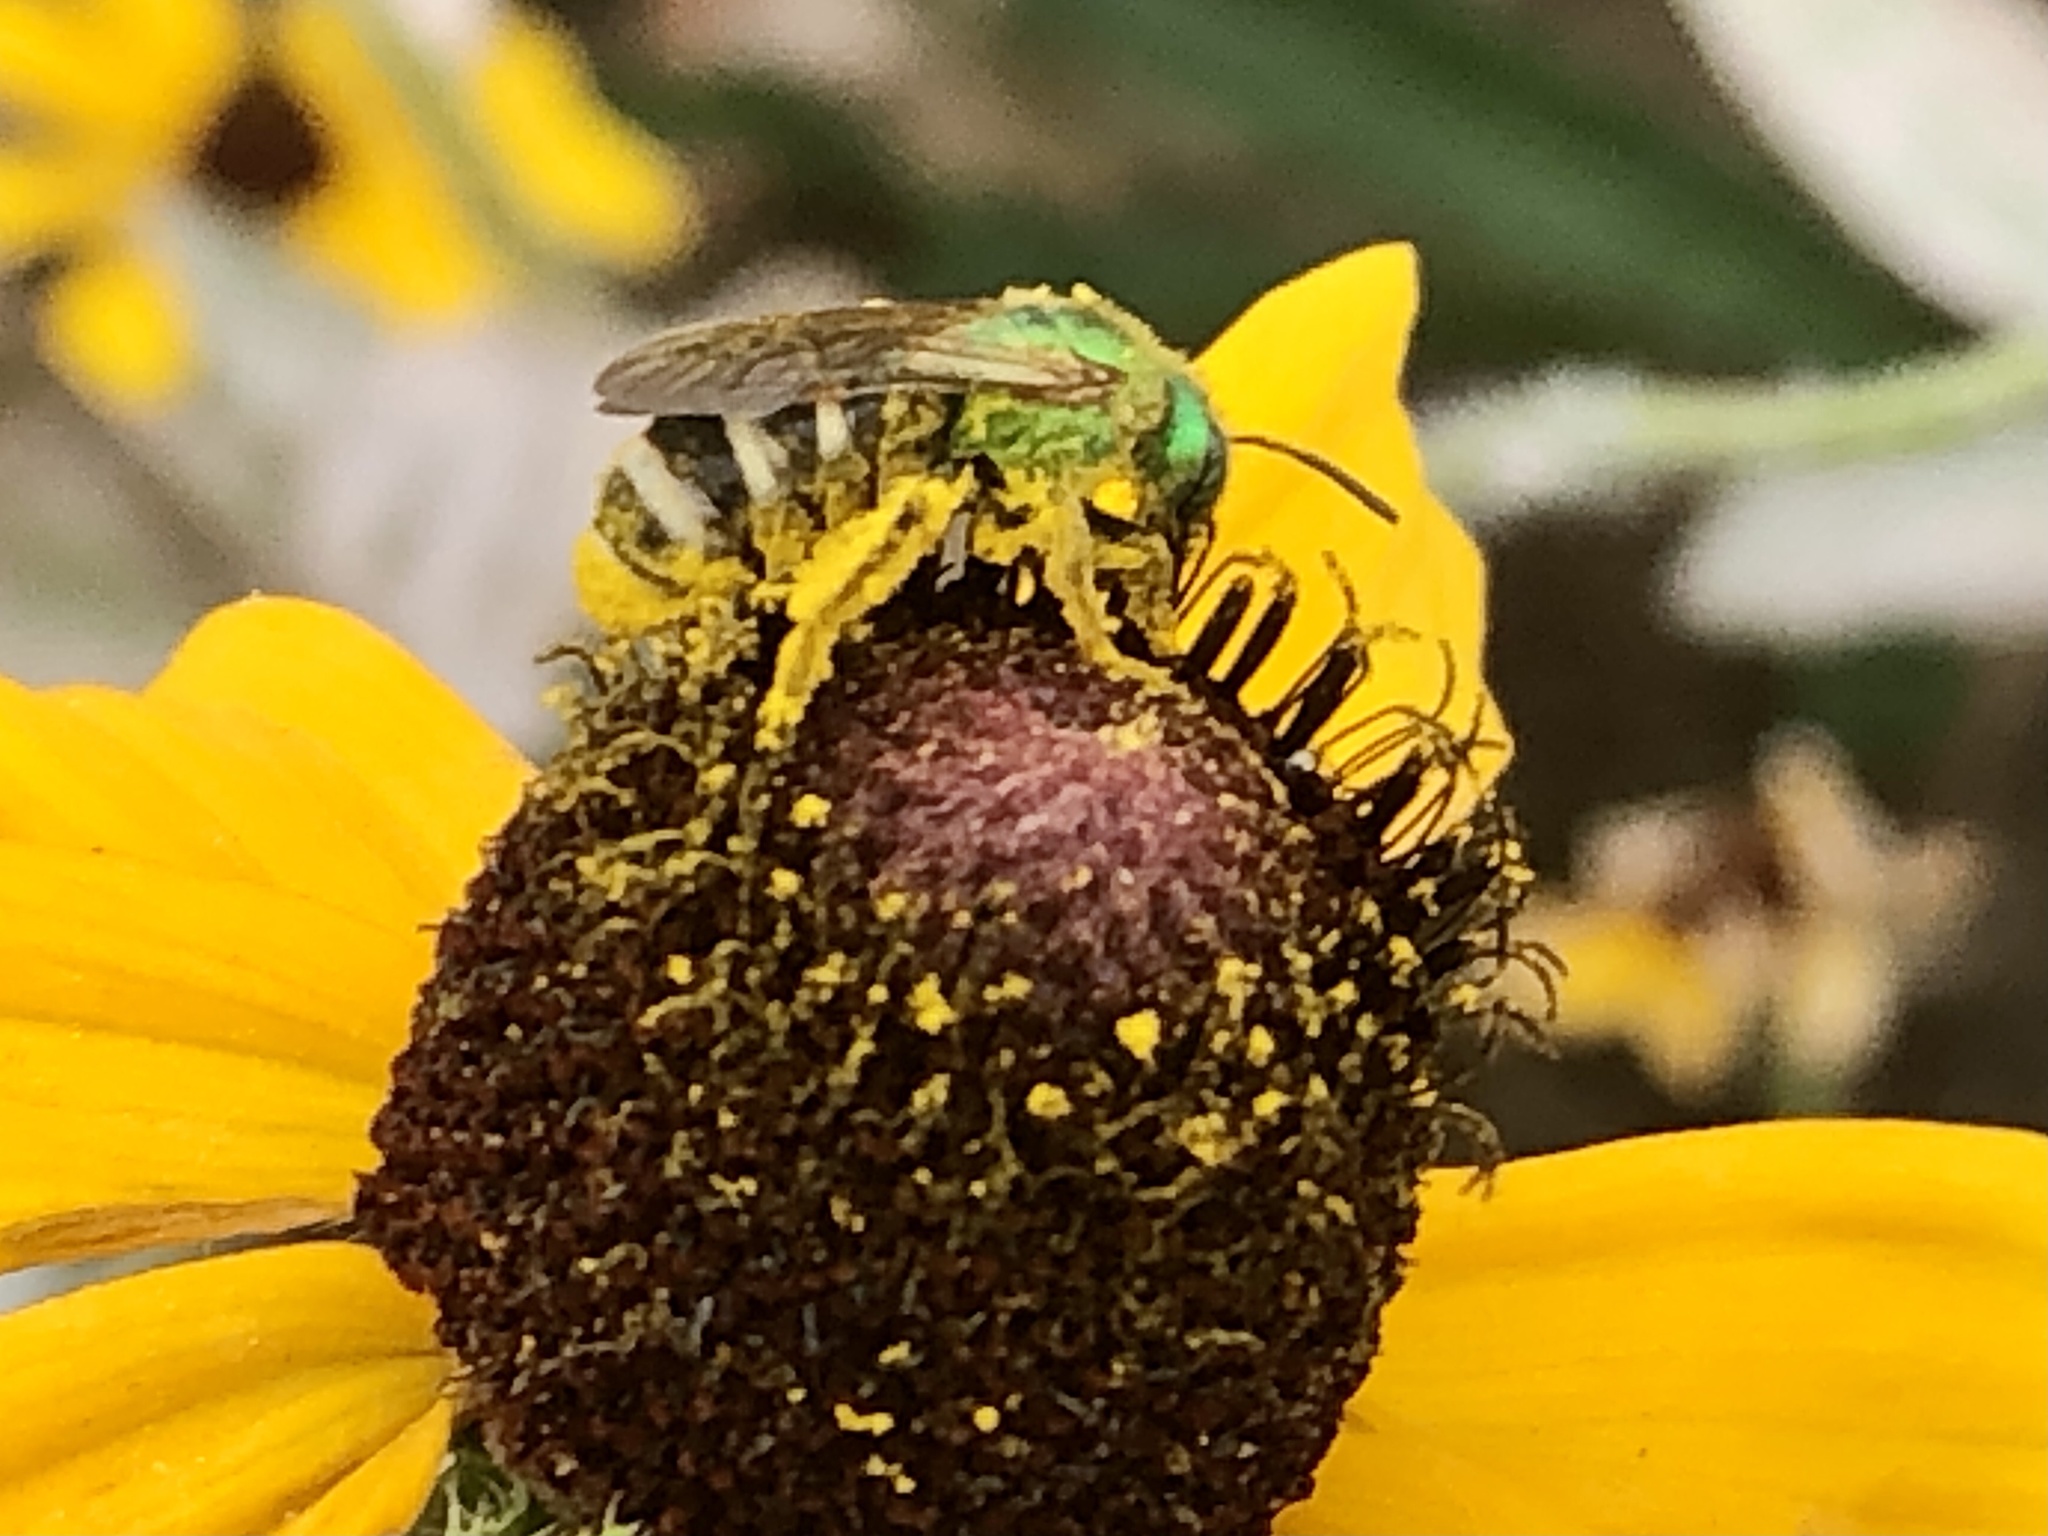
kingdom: Animalia
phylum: Arthropoda
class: Insecta
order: Hymenoptera
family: Halictidae
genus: Agapostemon
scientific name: Agapostemon virescens
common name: Bicolored striped sweat bee
